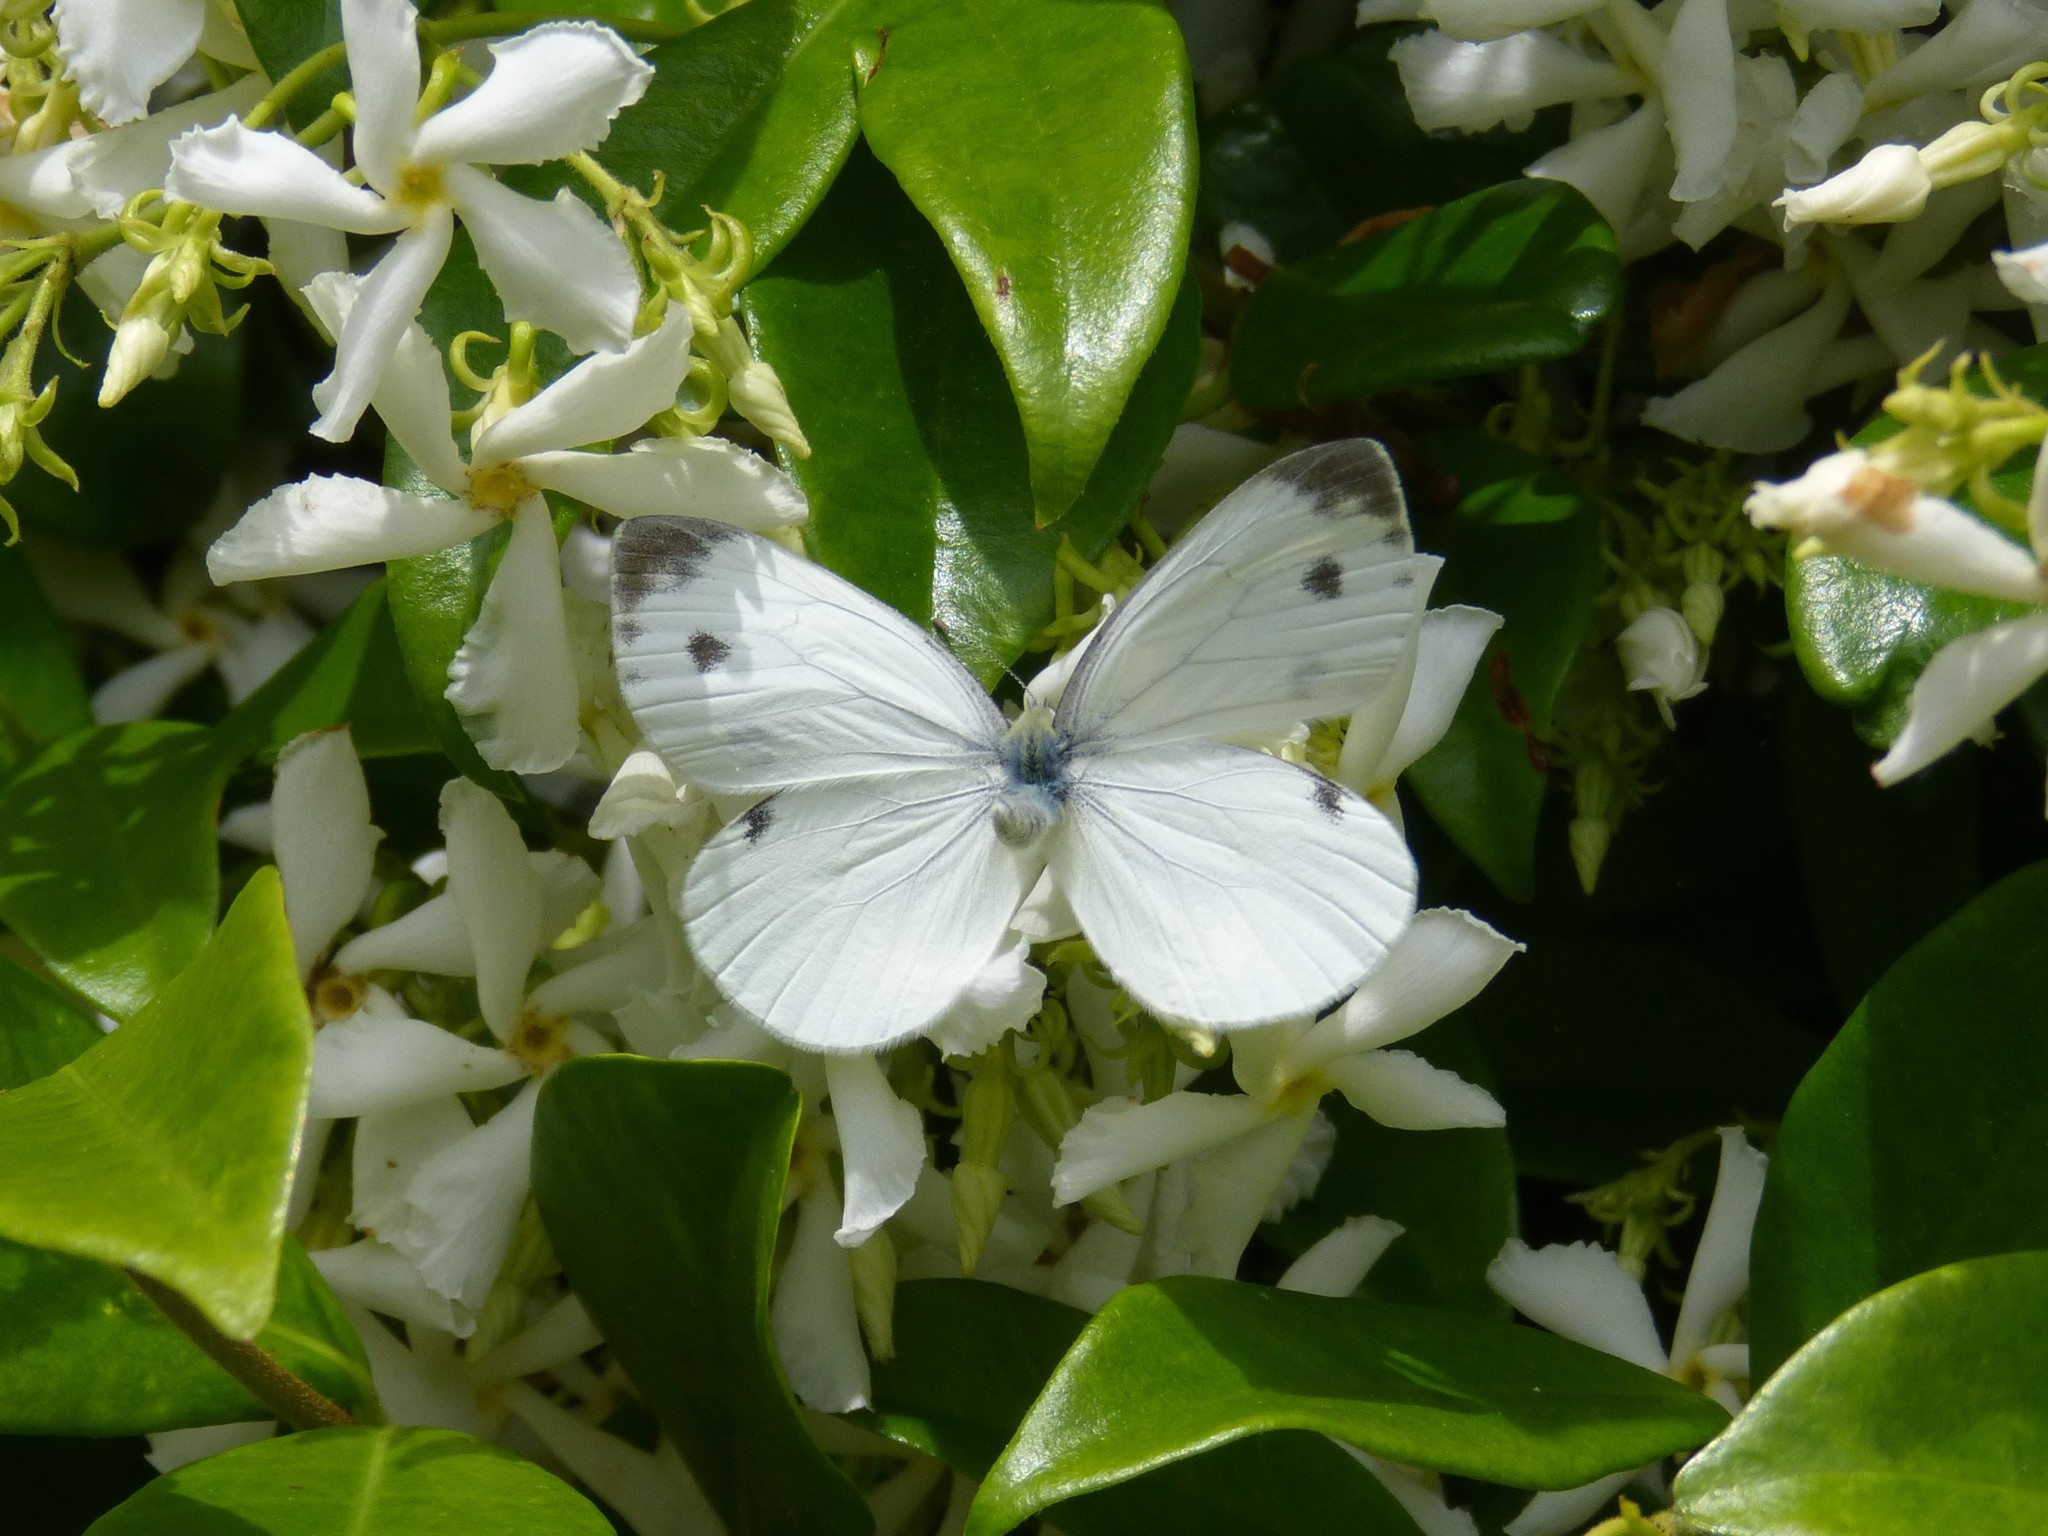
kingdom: Animalia
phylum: Arthropoda
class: Insecta
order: Lepidoptera
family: Pieridae
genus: Pieris
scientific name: Pieris napi
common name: Green-veined white
